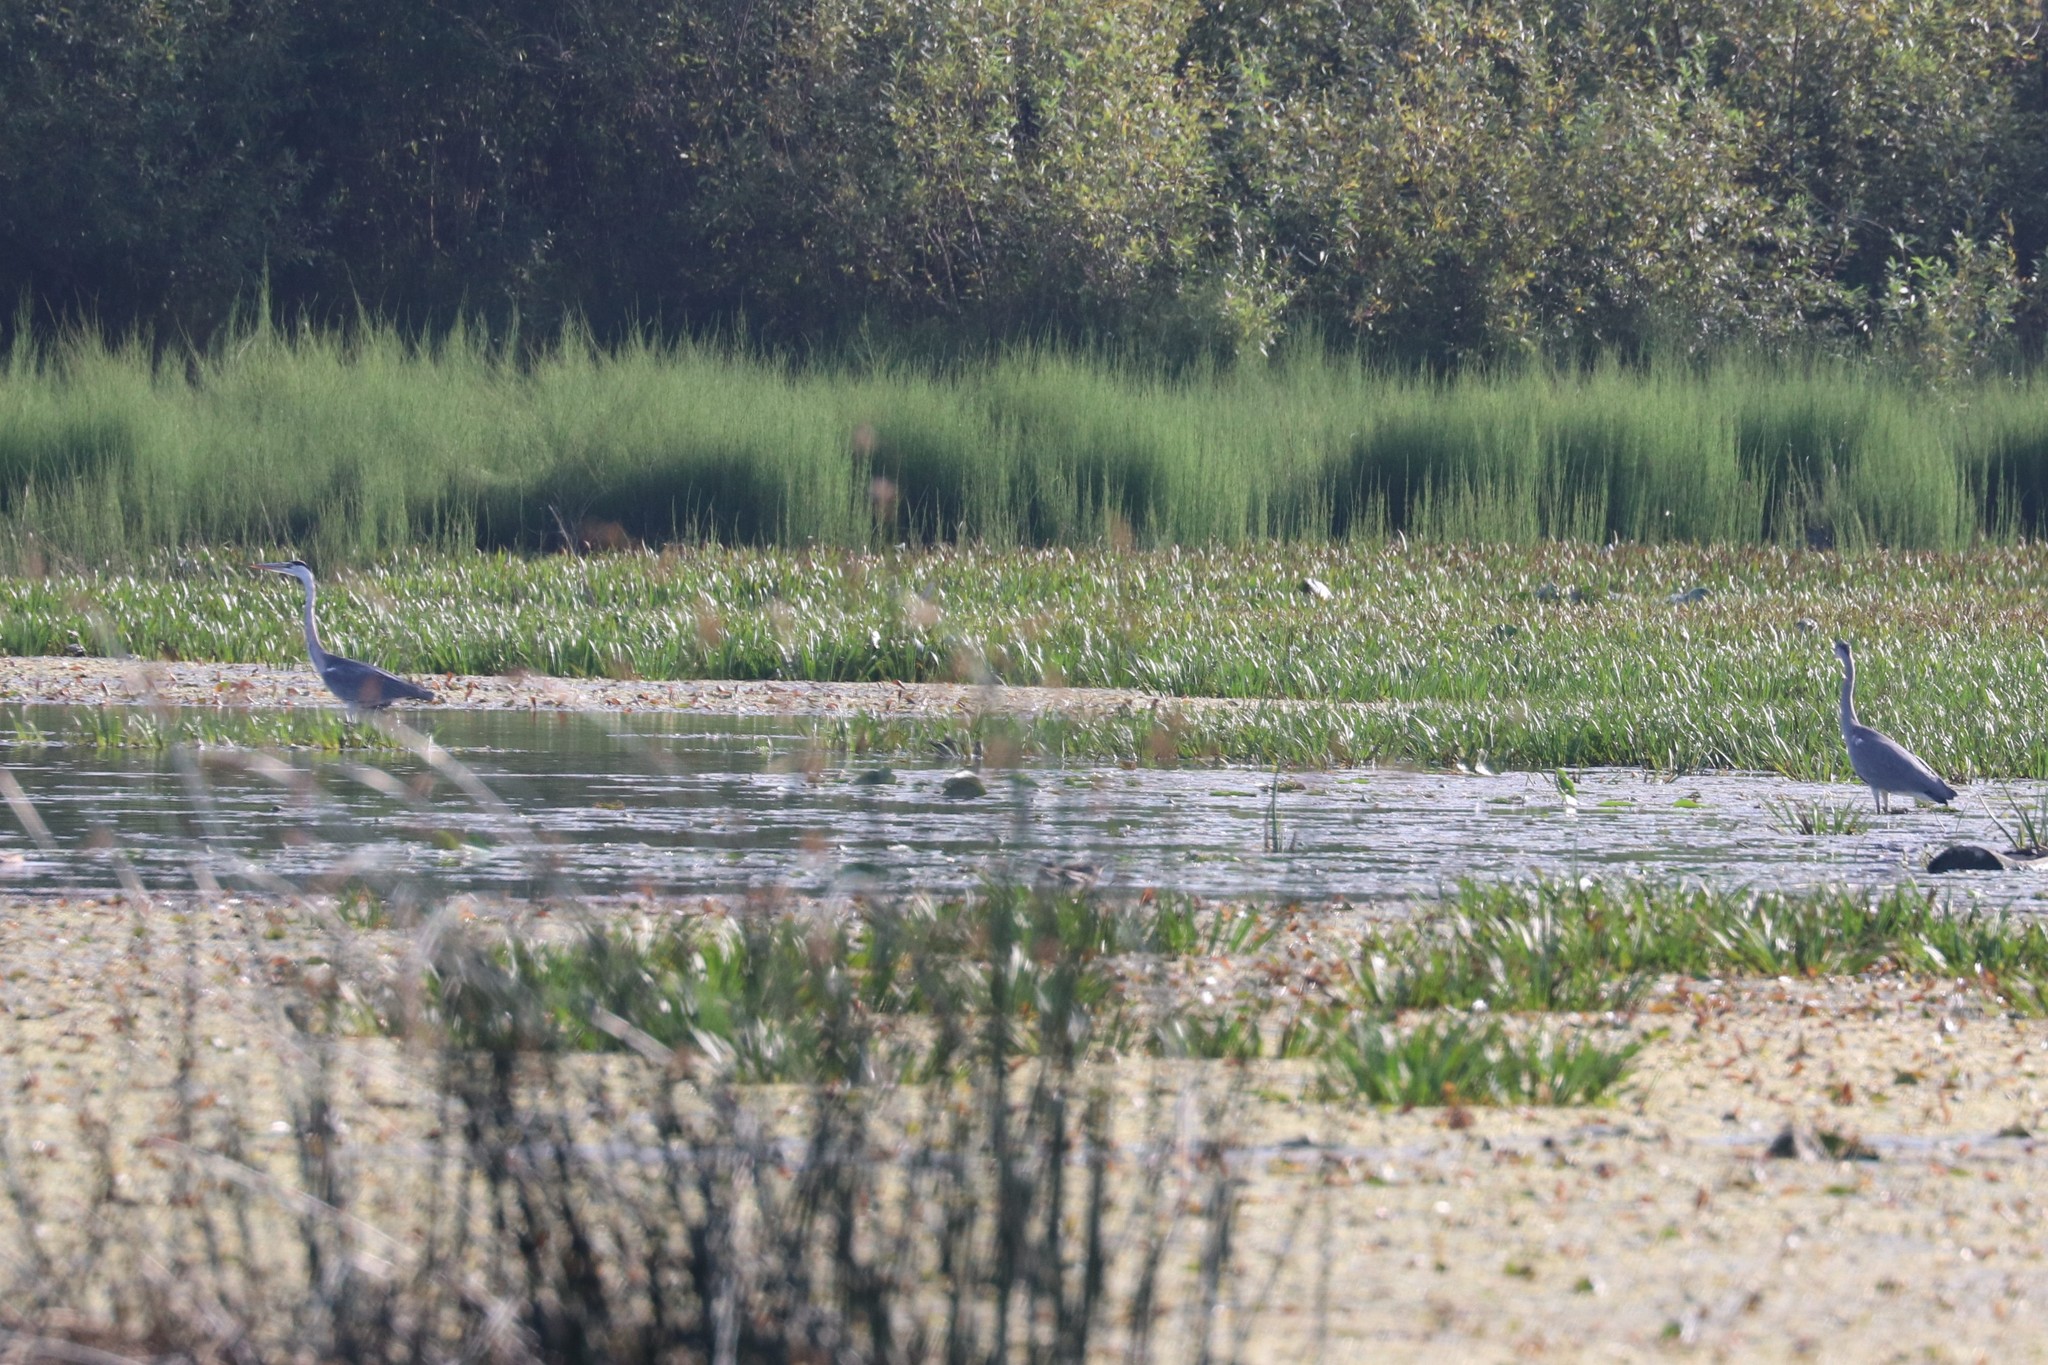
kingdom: Animalia
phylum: Chordata
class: Aves
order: Pelecaniformes
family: Ardeidae
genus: Ardea
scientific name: Ardea cinerea
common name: Grey heron
